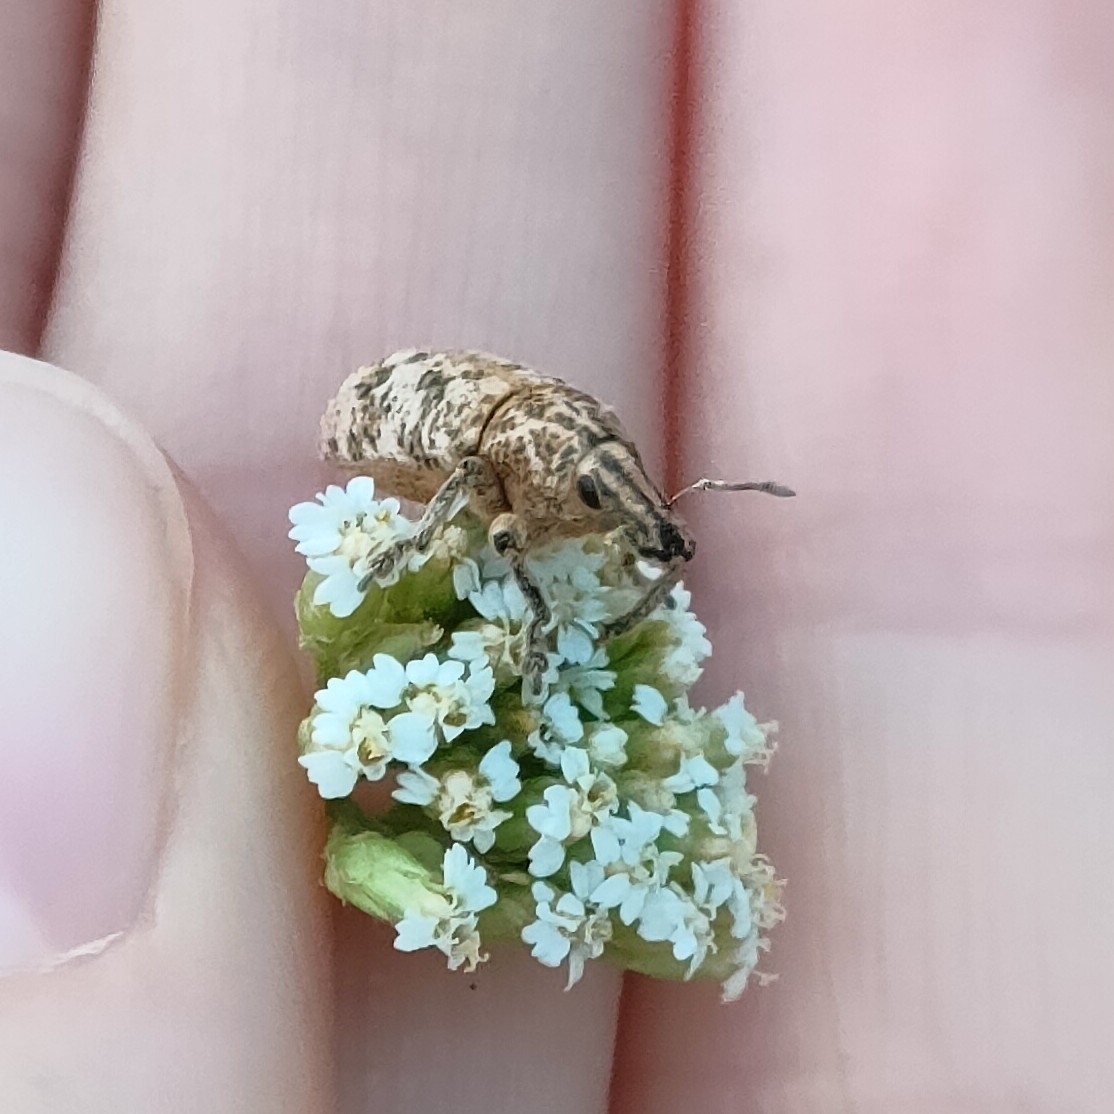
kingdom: Animalia
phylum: Arthropoda
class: Insecta
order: Coleoptera
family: Curculionidae
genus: Cyphocleonus
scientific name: Cyphocleonus dealbatus
